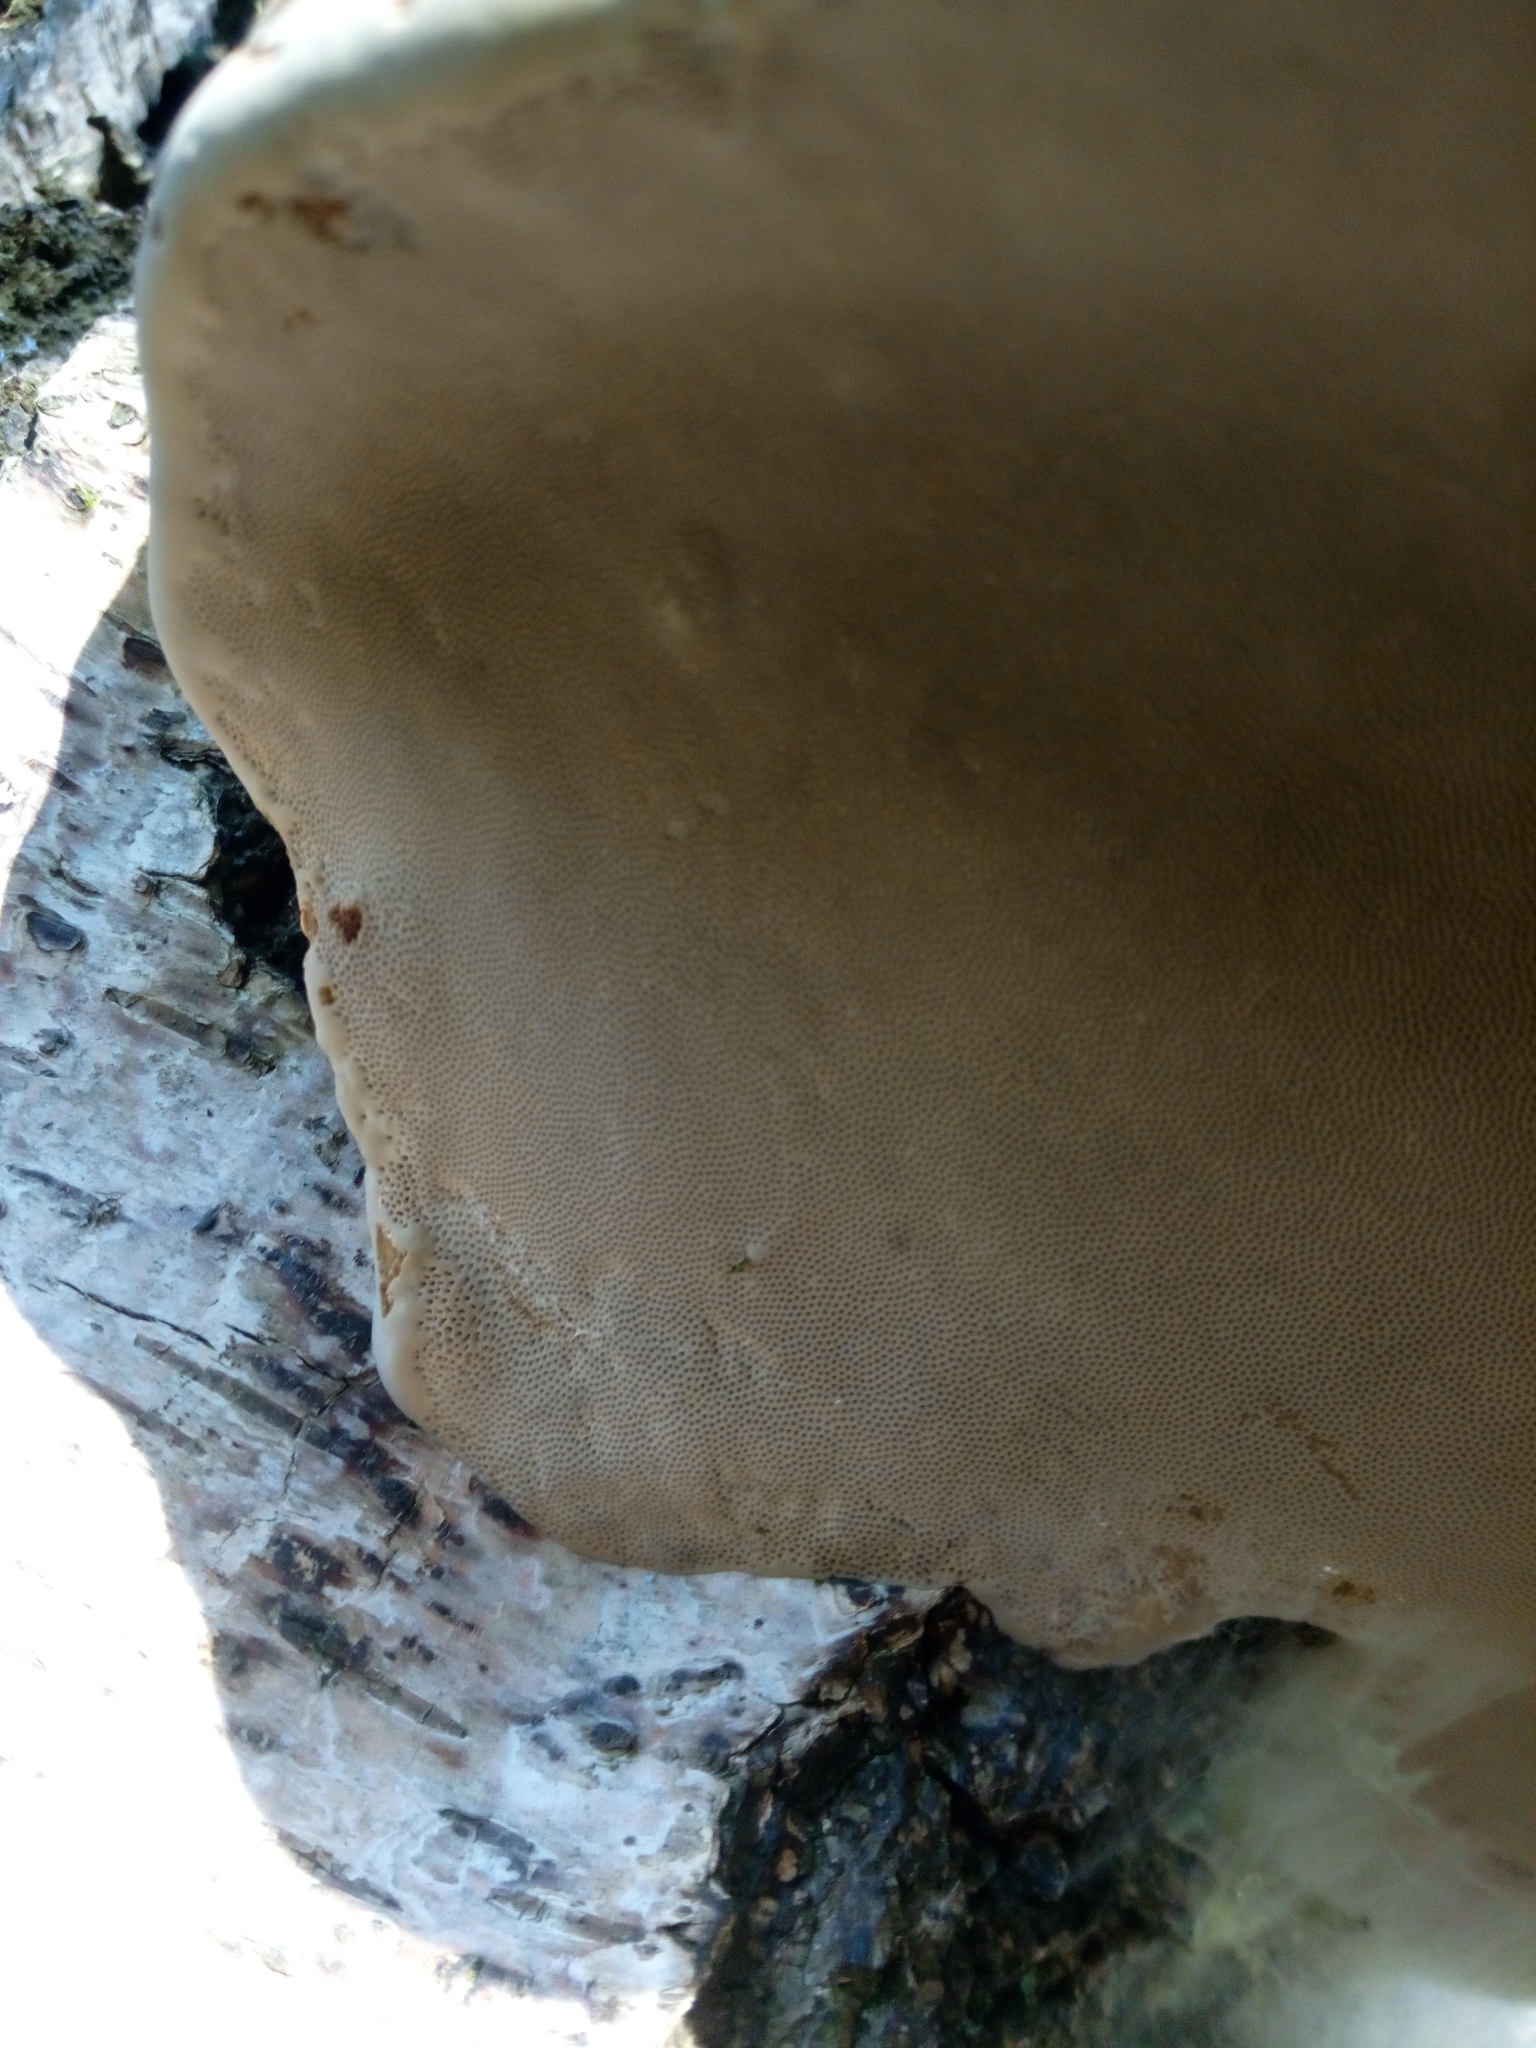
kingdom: Fungi
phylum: Basidiomycota
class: Agaricomycetes
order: Polyporales
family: Polyporaceae
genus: Fomes
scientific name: Fomes fomentarius
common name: Hoof fungus
